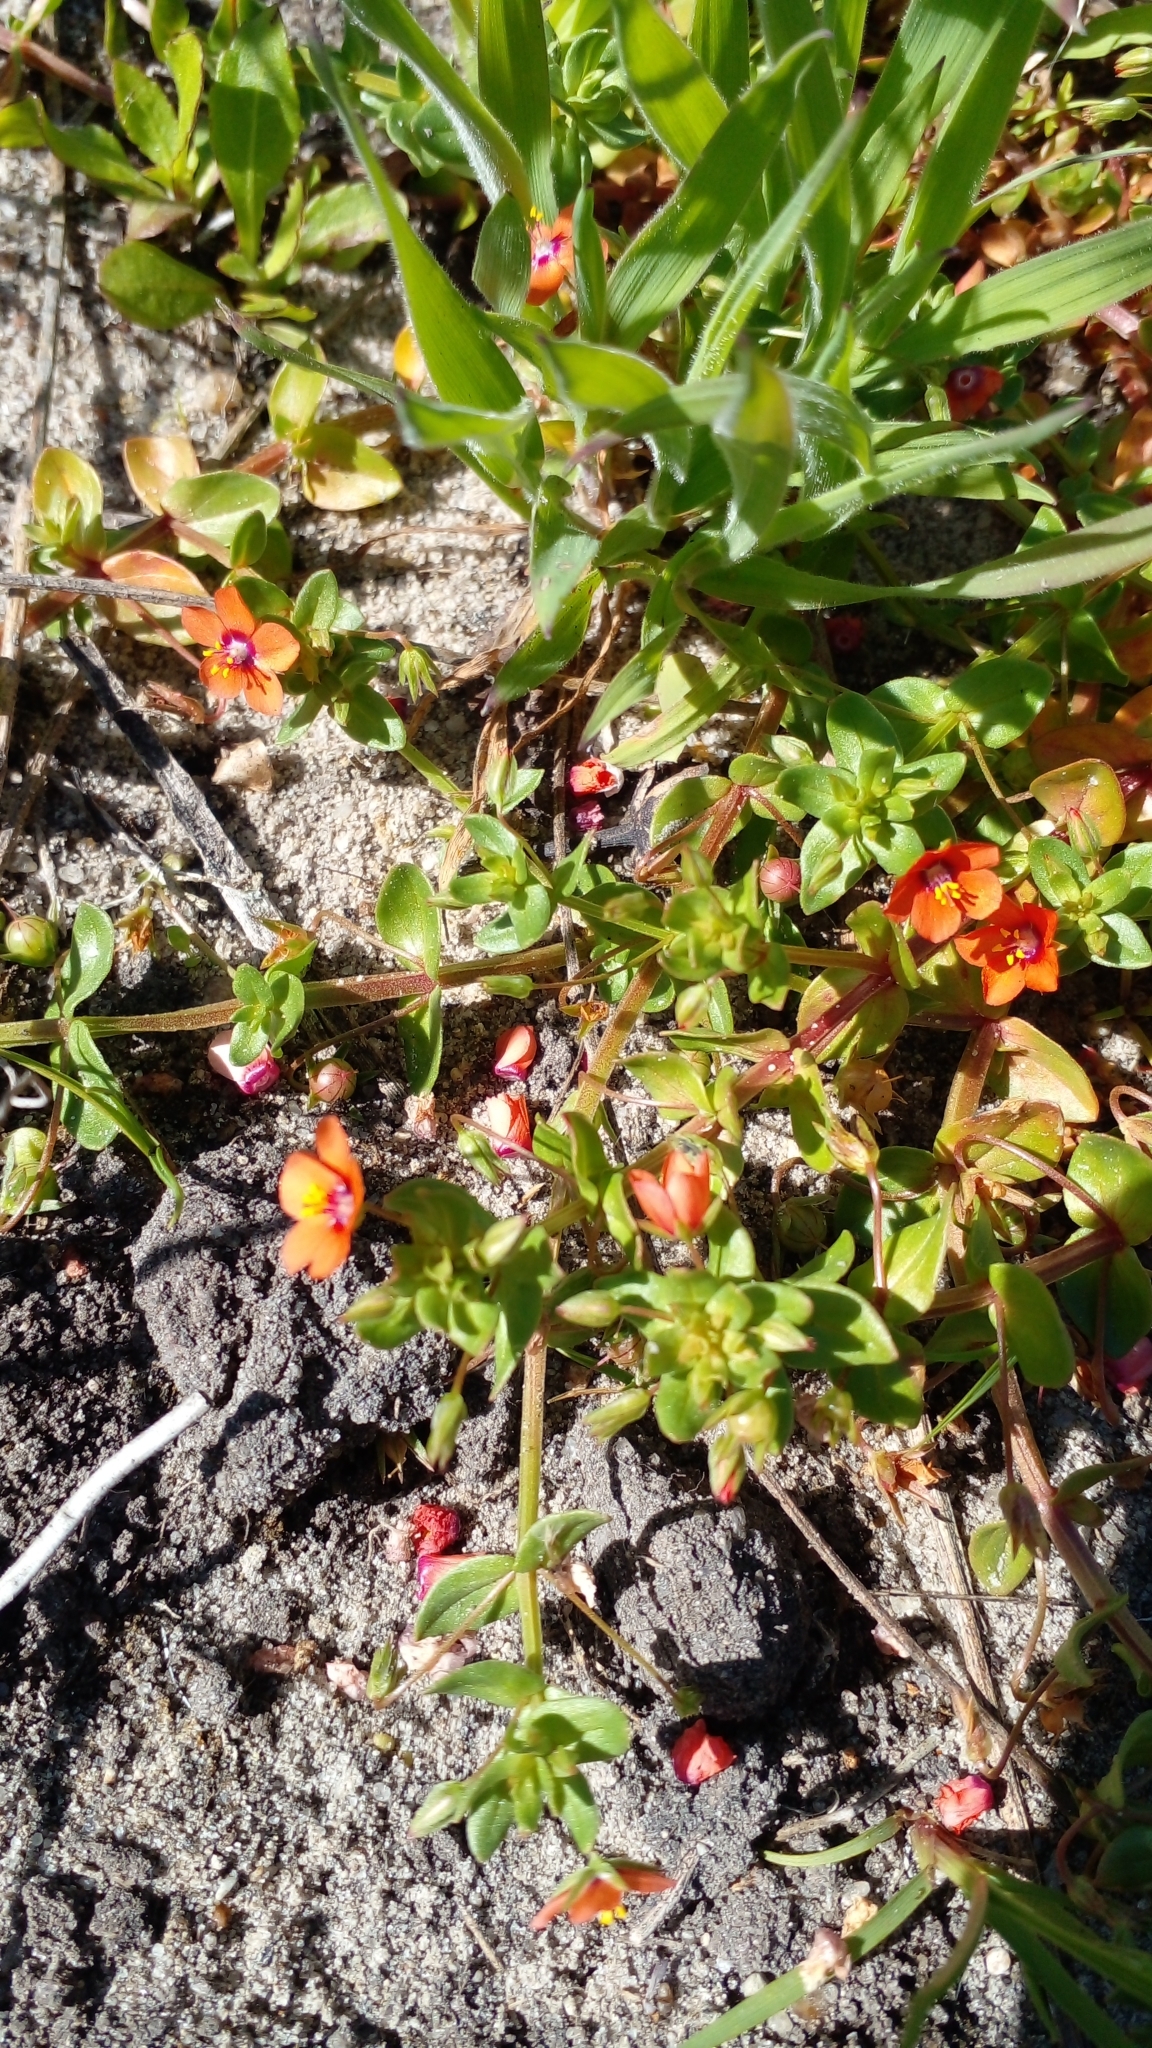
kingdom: Plantae
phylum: Tracheophyta
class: Magnoliopsida
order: Ericales
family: Primulaceae
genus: Lysimachia
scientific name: Lysimachia arvensis
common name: Scarlet pimpernel
